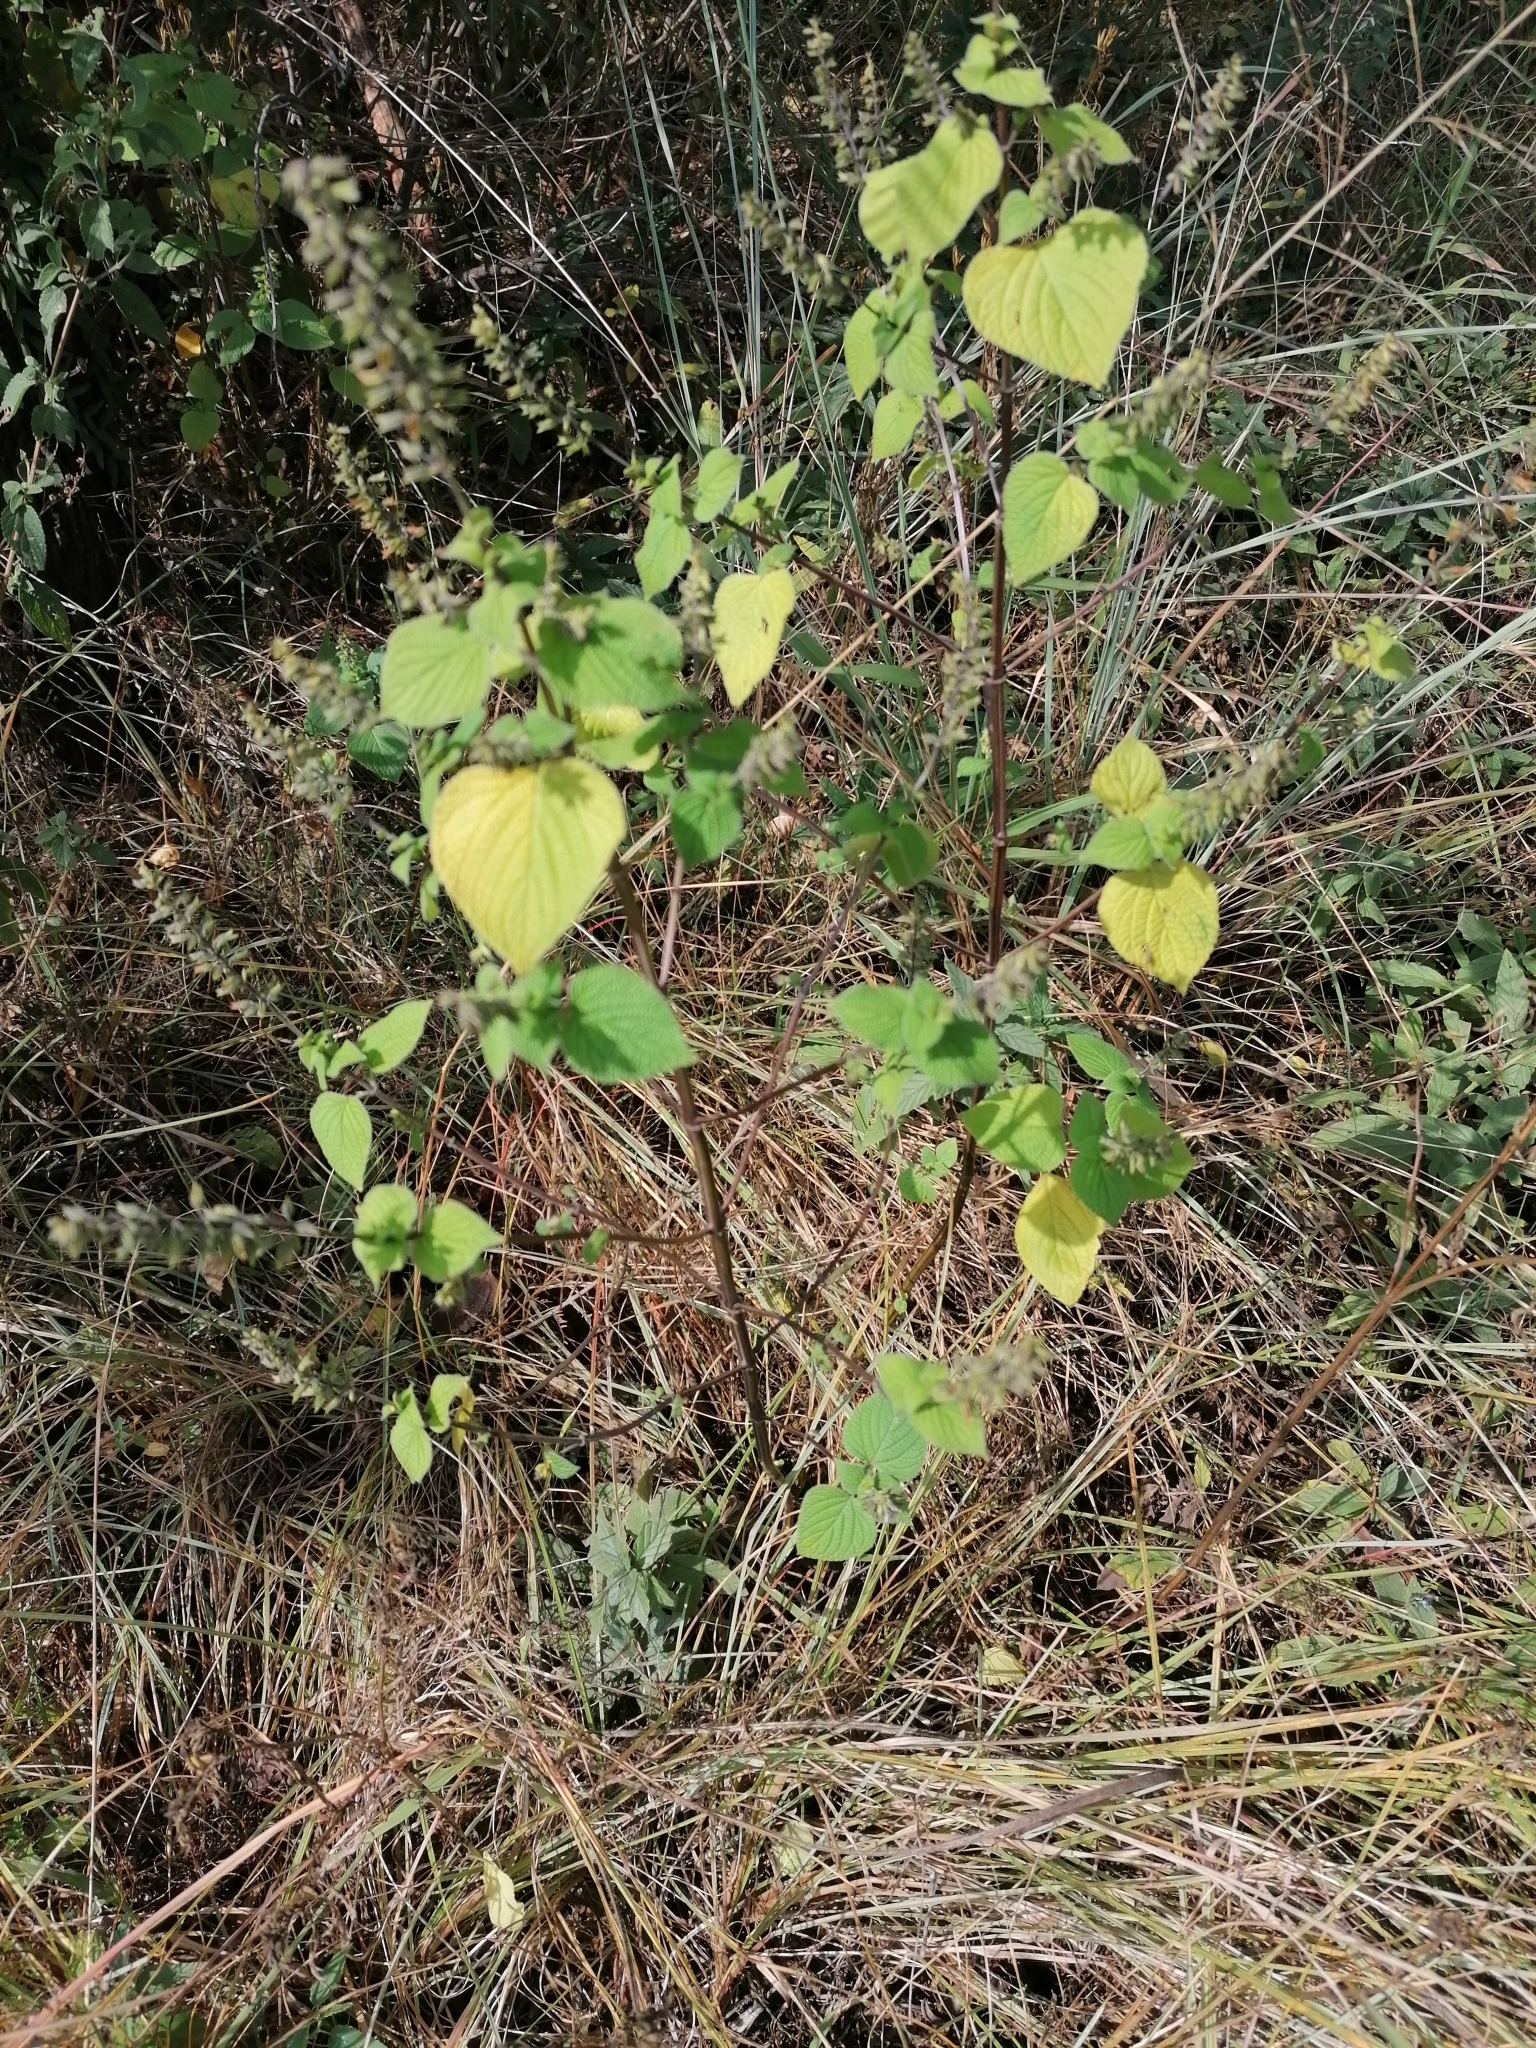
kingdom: Plantae
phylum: Tracheophyta
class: Magnoliopsida
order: Lamiales
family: Lamiaceae
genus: Salvia
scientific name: Salvia tiliifolia
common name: Lindenleaf sage
